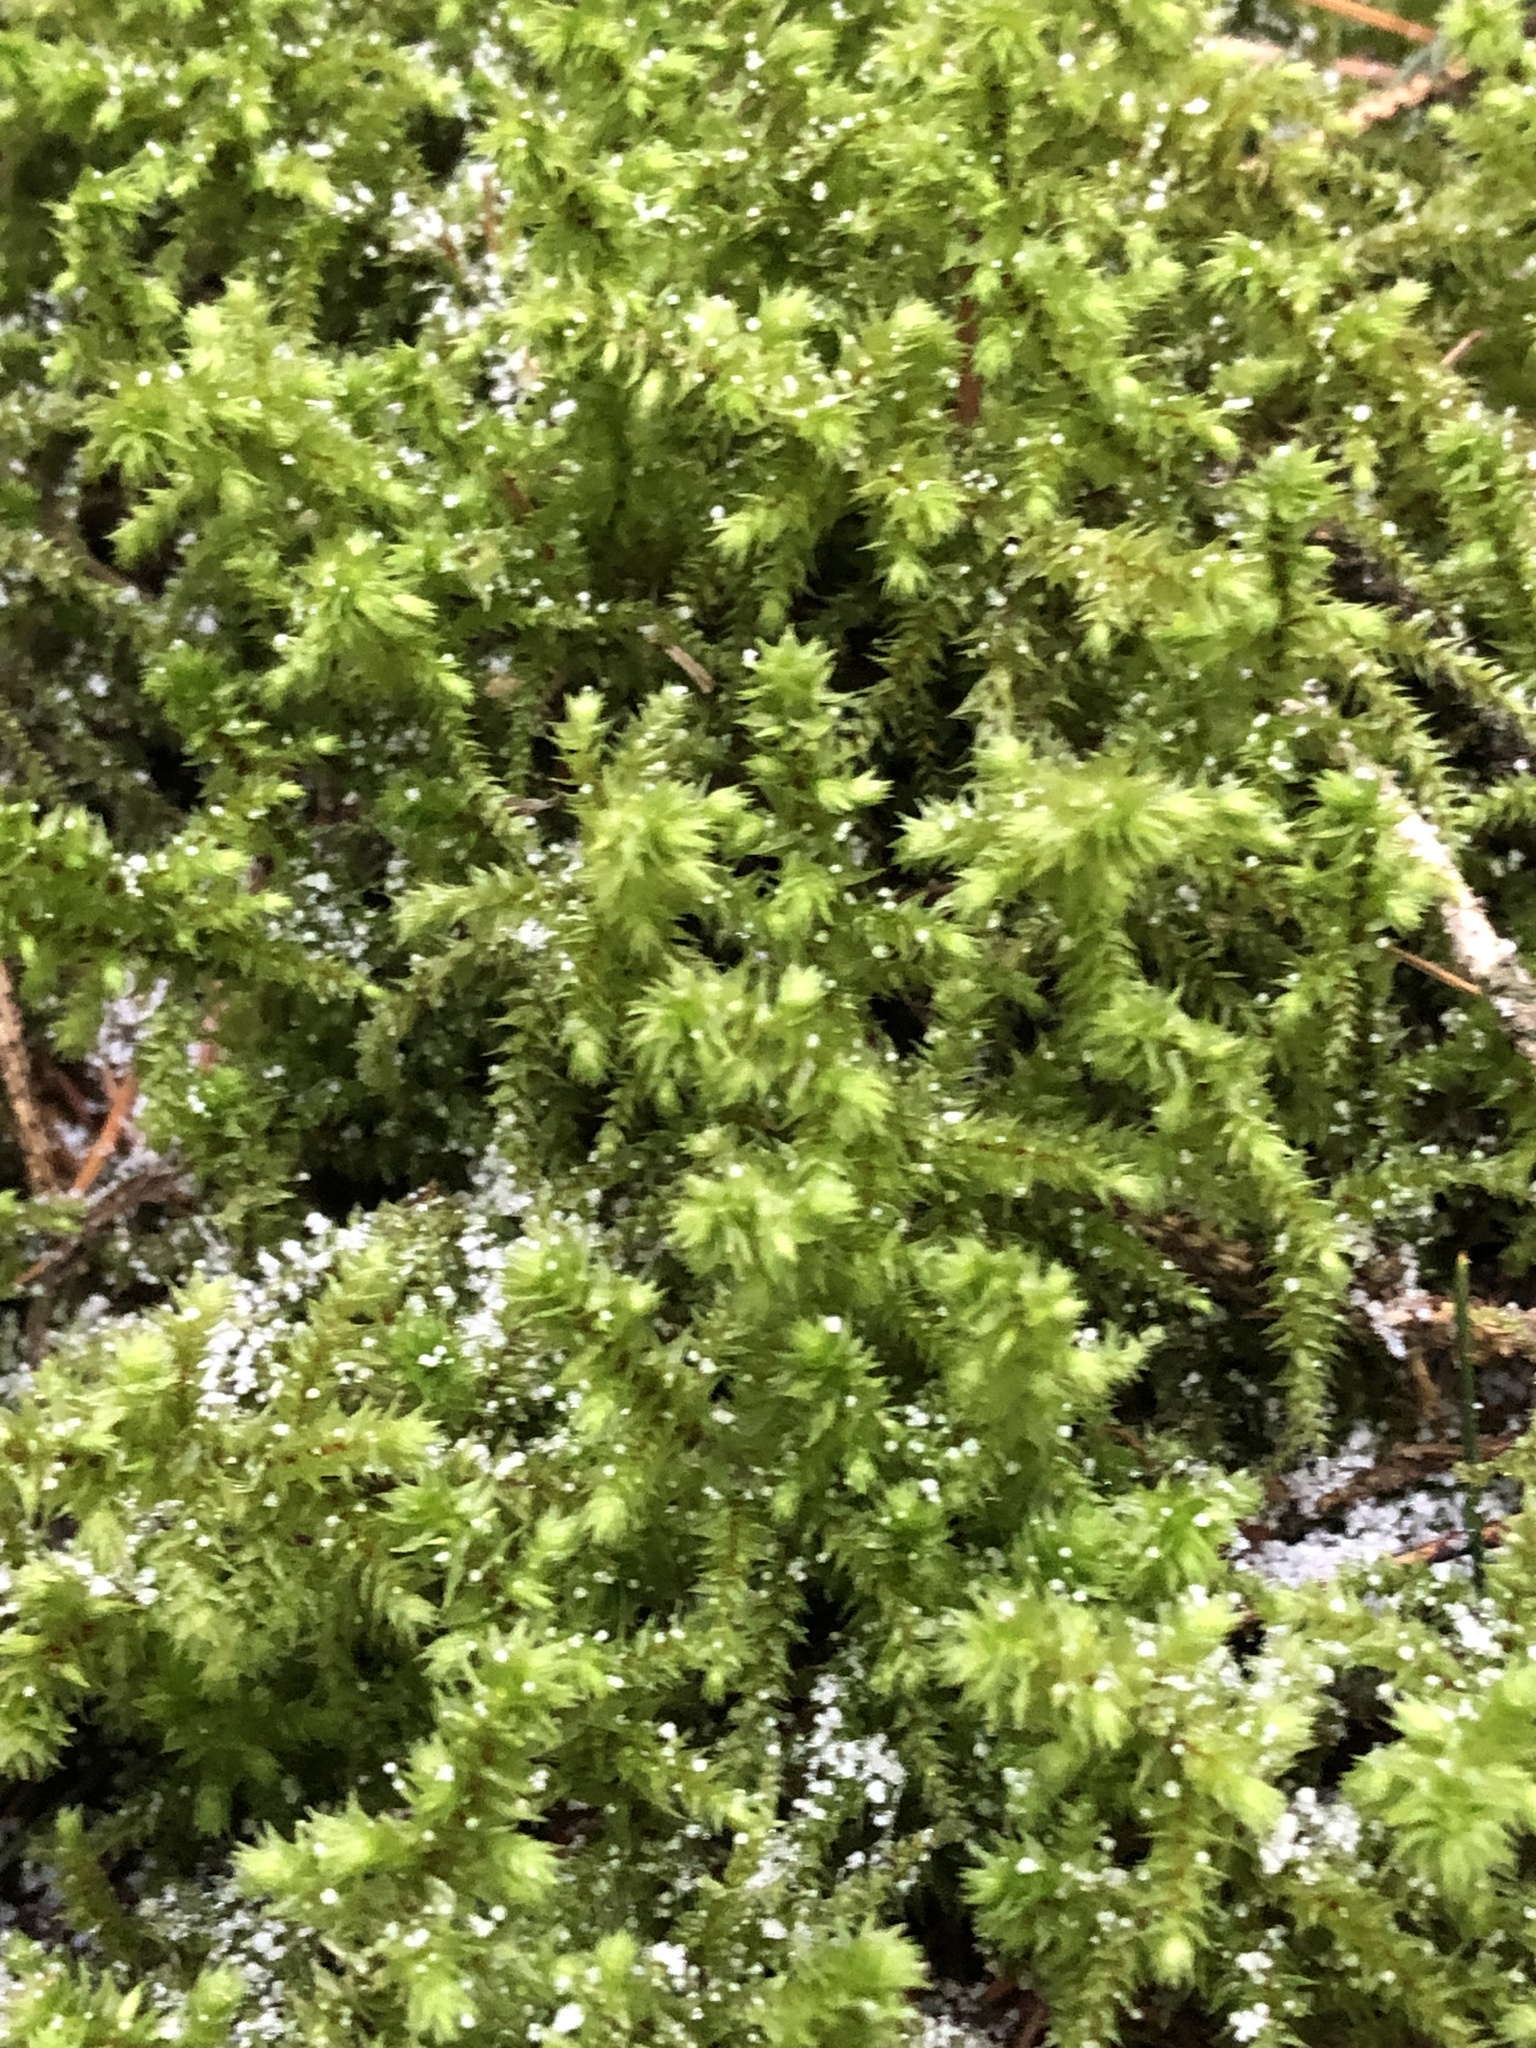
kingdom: Plantae
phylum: Bryophyta
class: Bryopsida
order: Hypnales
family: Hylocomiaceae
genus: Hylocomiadelphus
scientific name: Hylocomiadelphus triquetrus
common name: Rough goose neck moss
